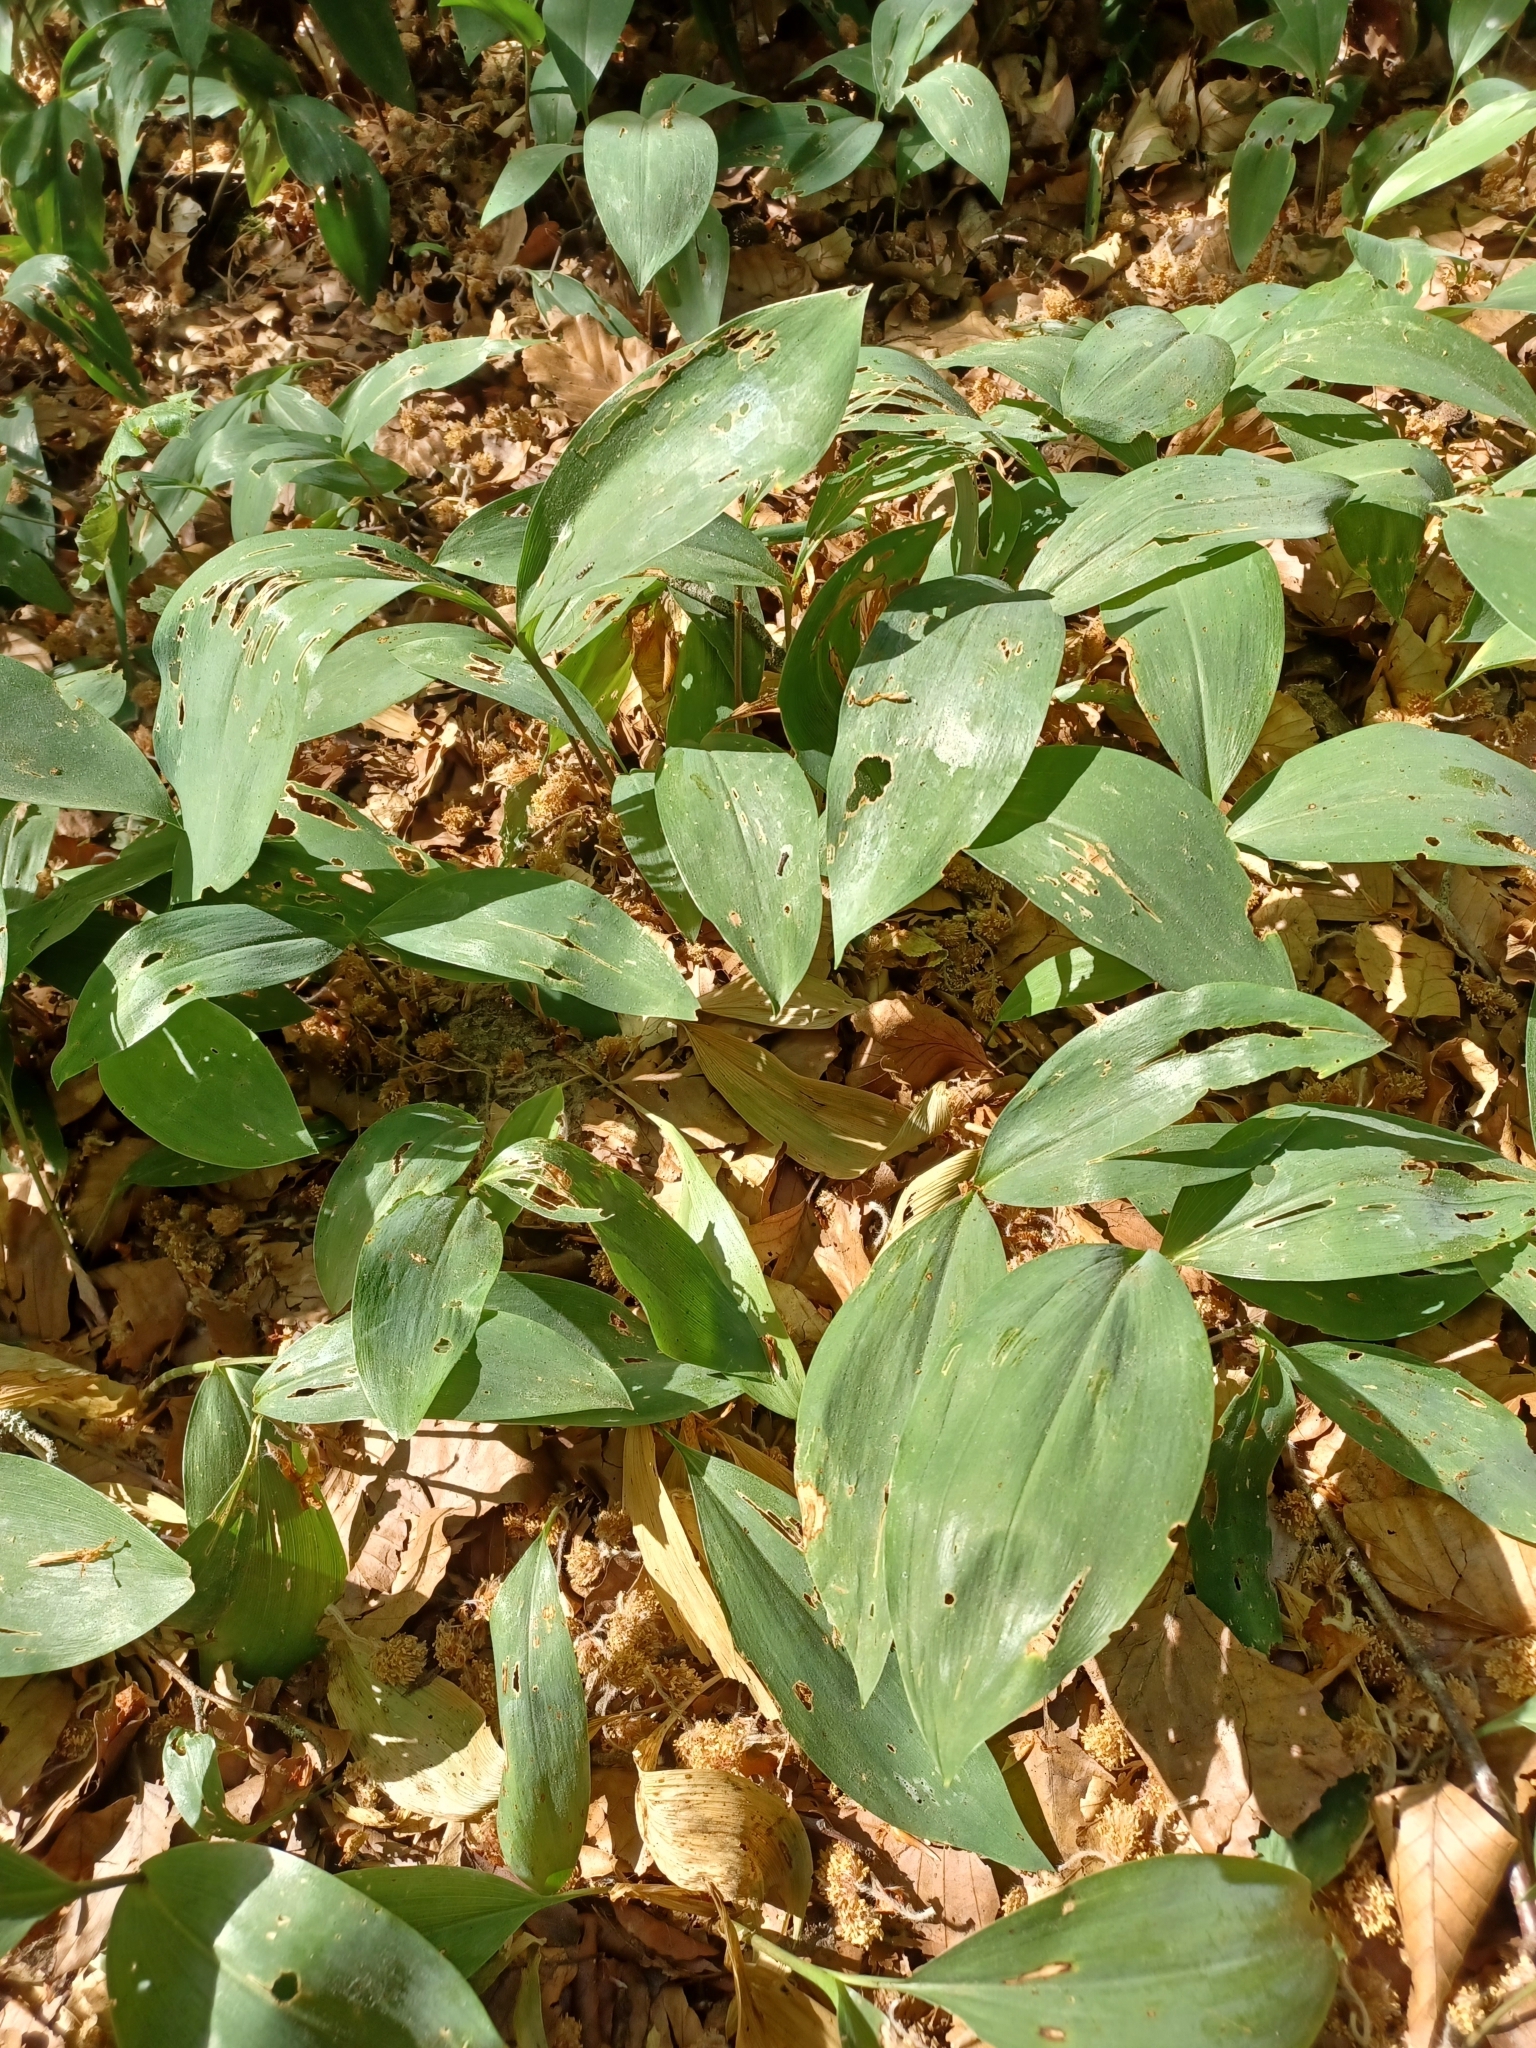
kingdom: Plantae
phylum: Tracheophyta
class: Liliopsida
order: Asparagales
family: Asparagaceae
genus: Convallaria
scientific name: Convallaria majalis
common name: Lily-of-the-valley
